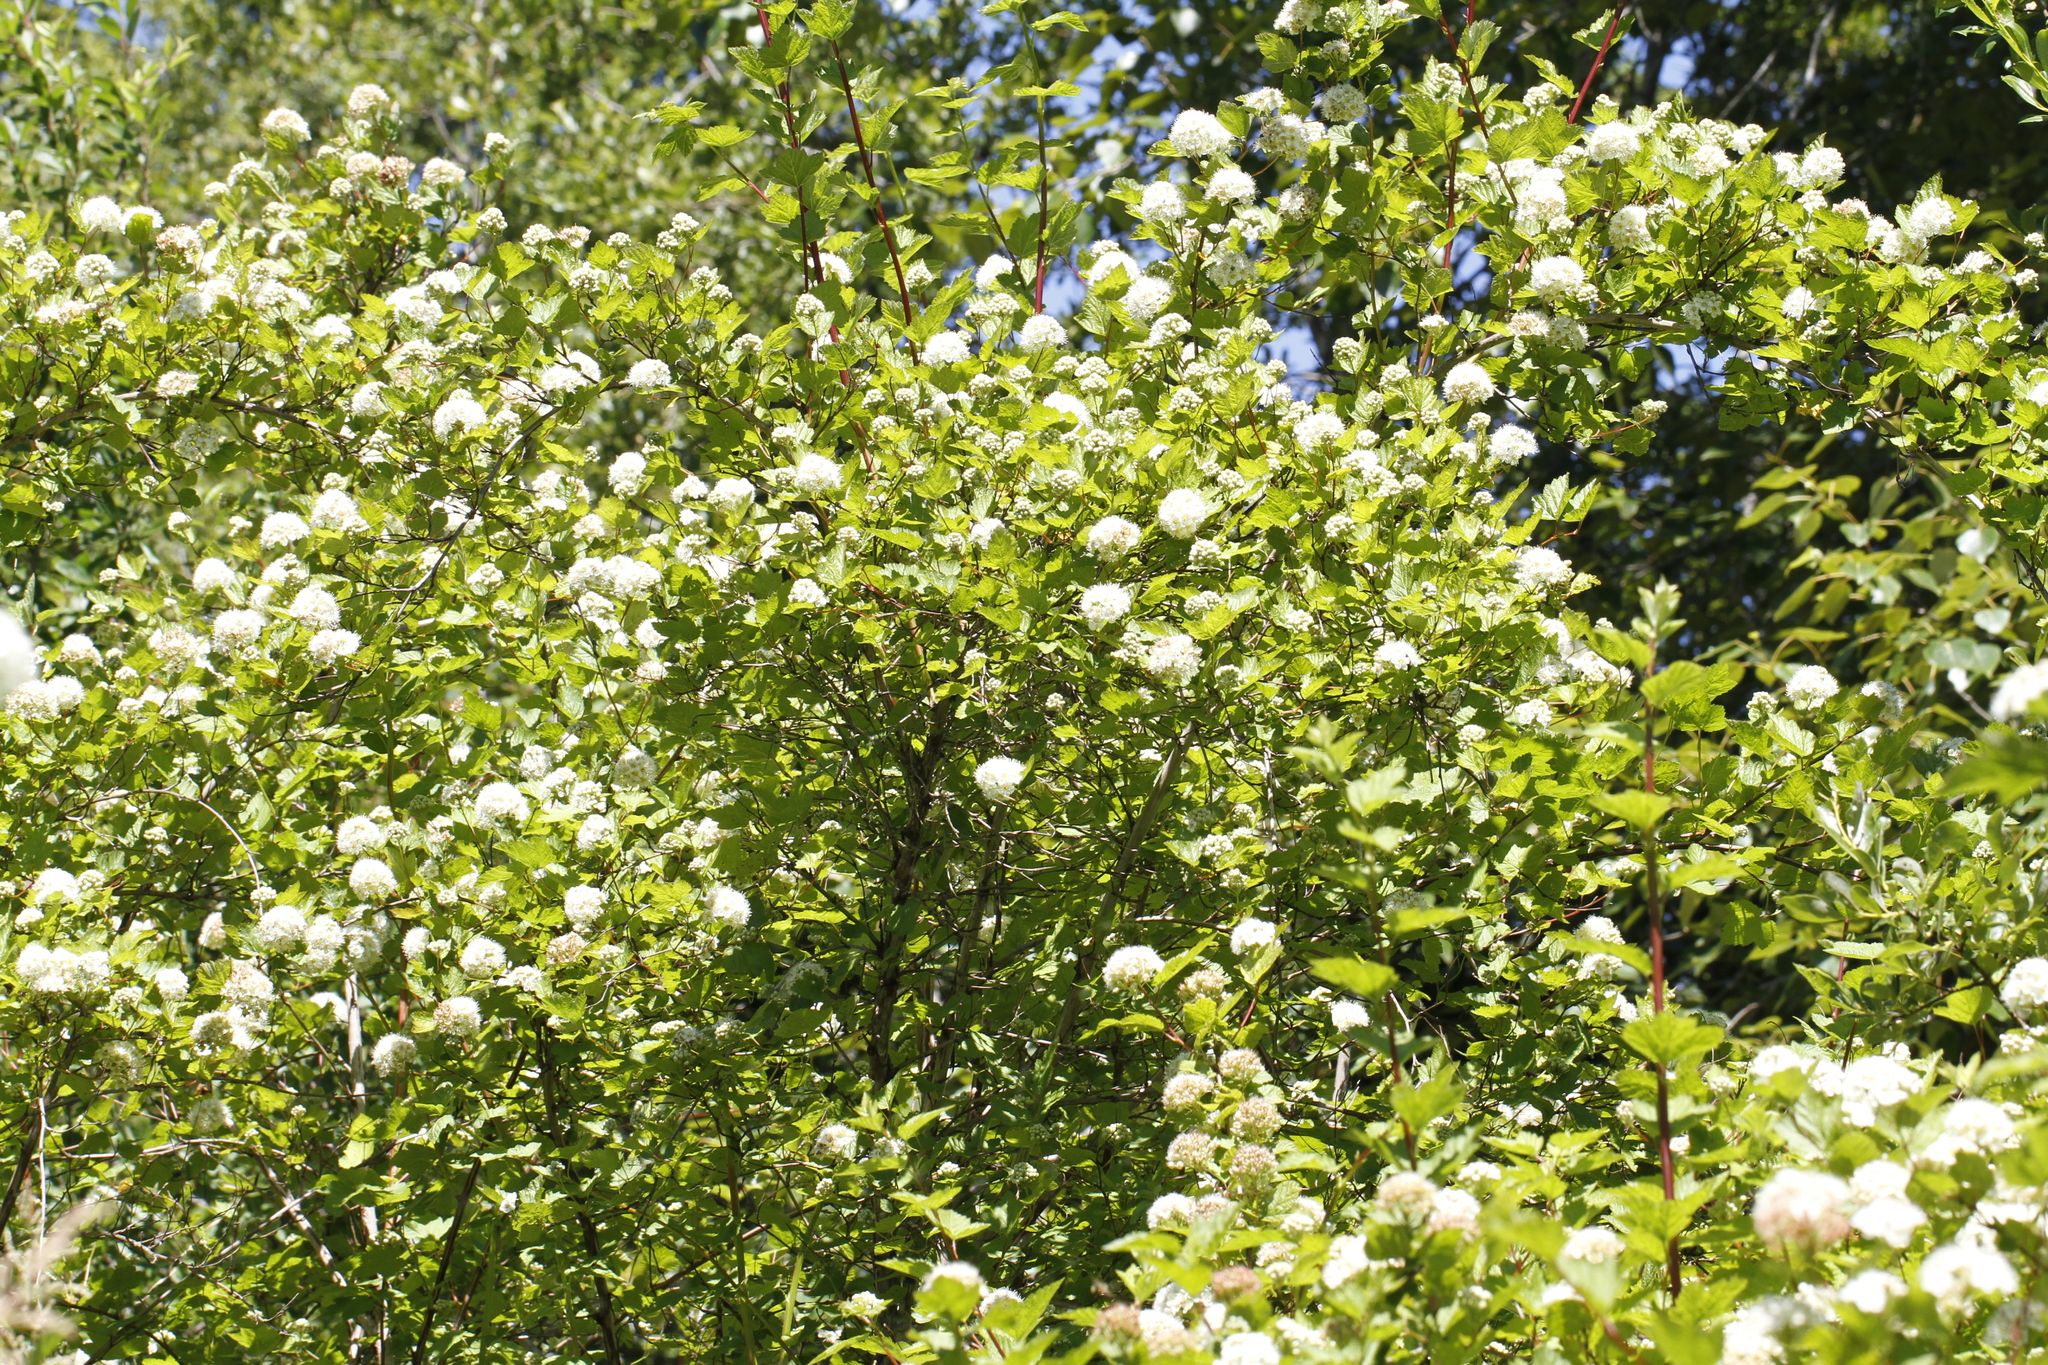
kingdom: Plantae
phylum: Tracheophyta
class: Magnoliopsida
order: Rosales
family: Rosaceae
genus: Physocarpus
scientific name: Physocarpus capitatus
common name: Pacific ninebark
